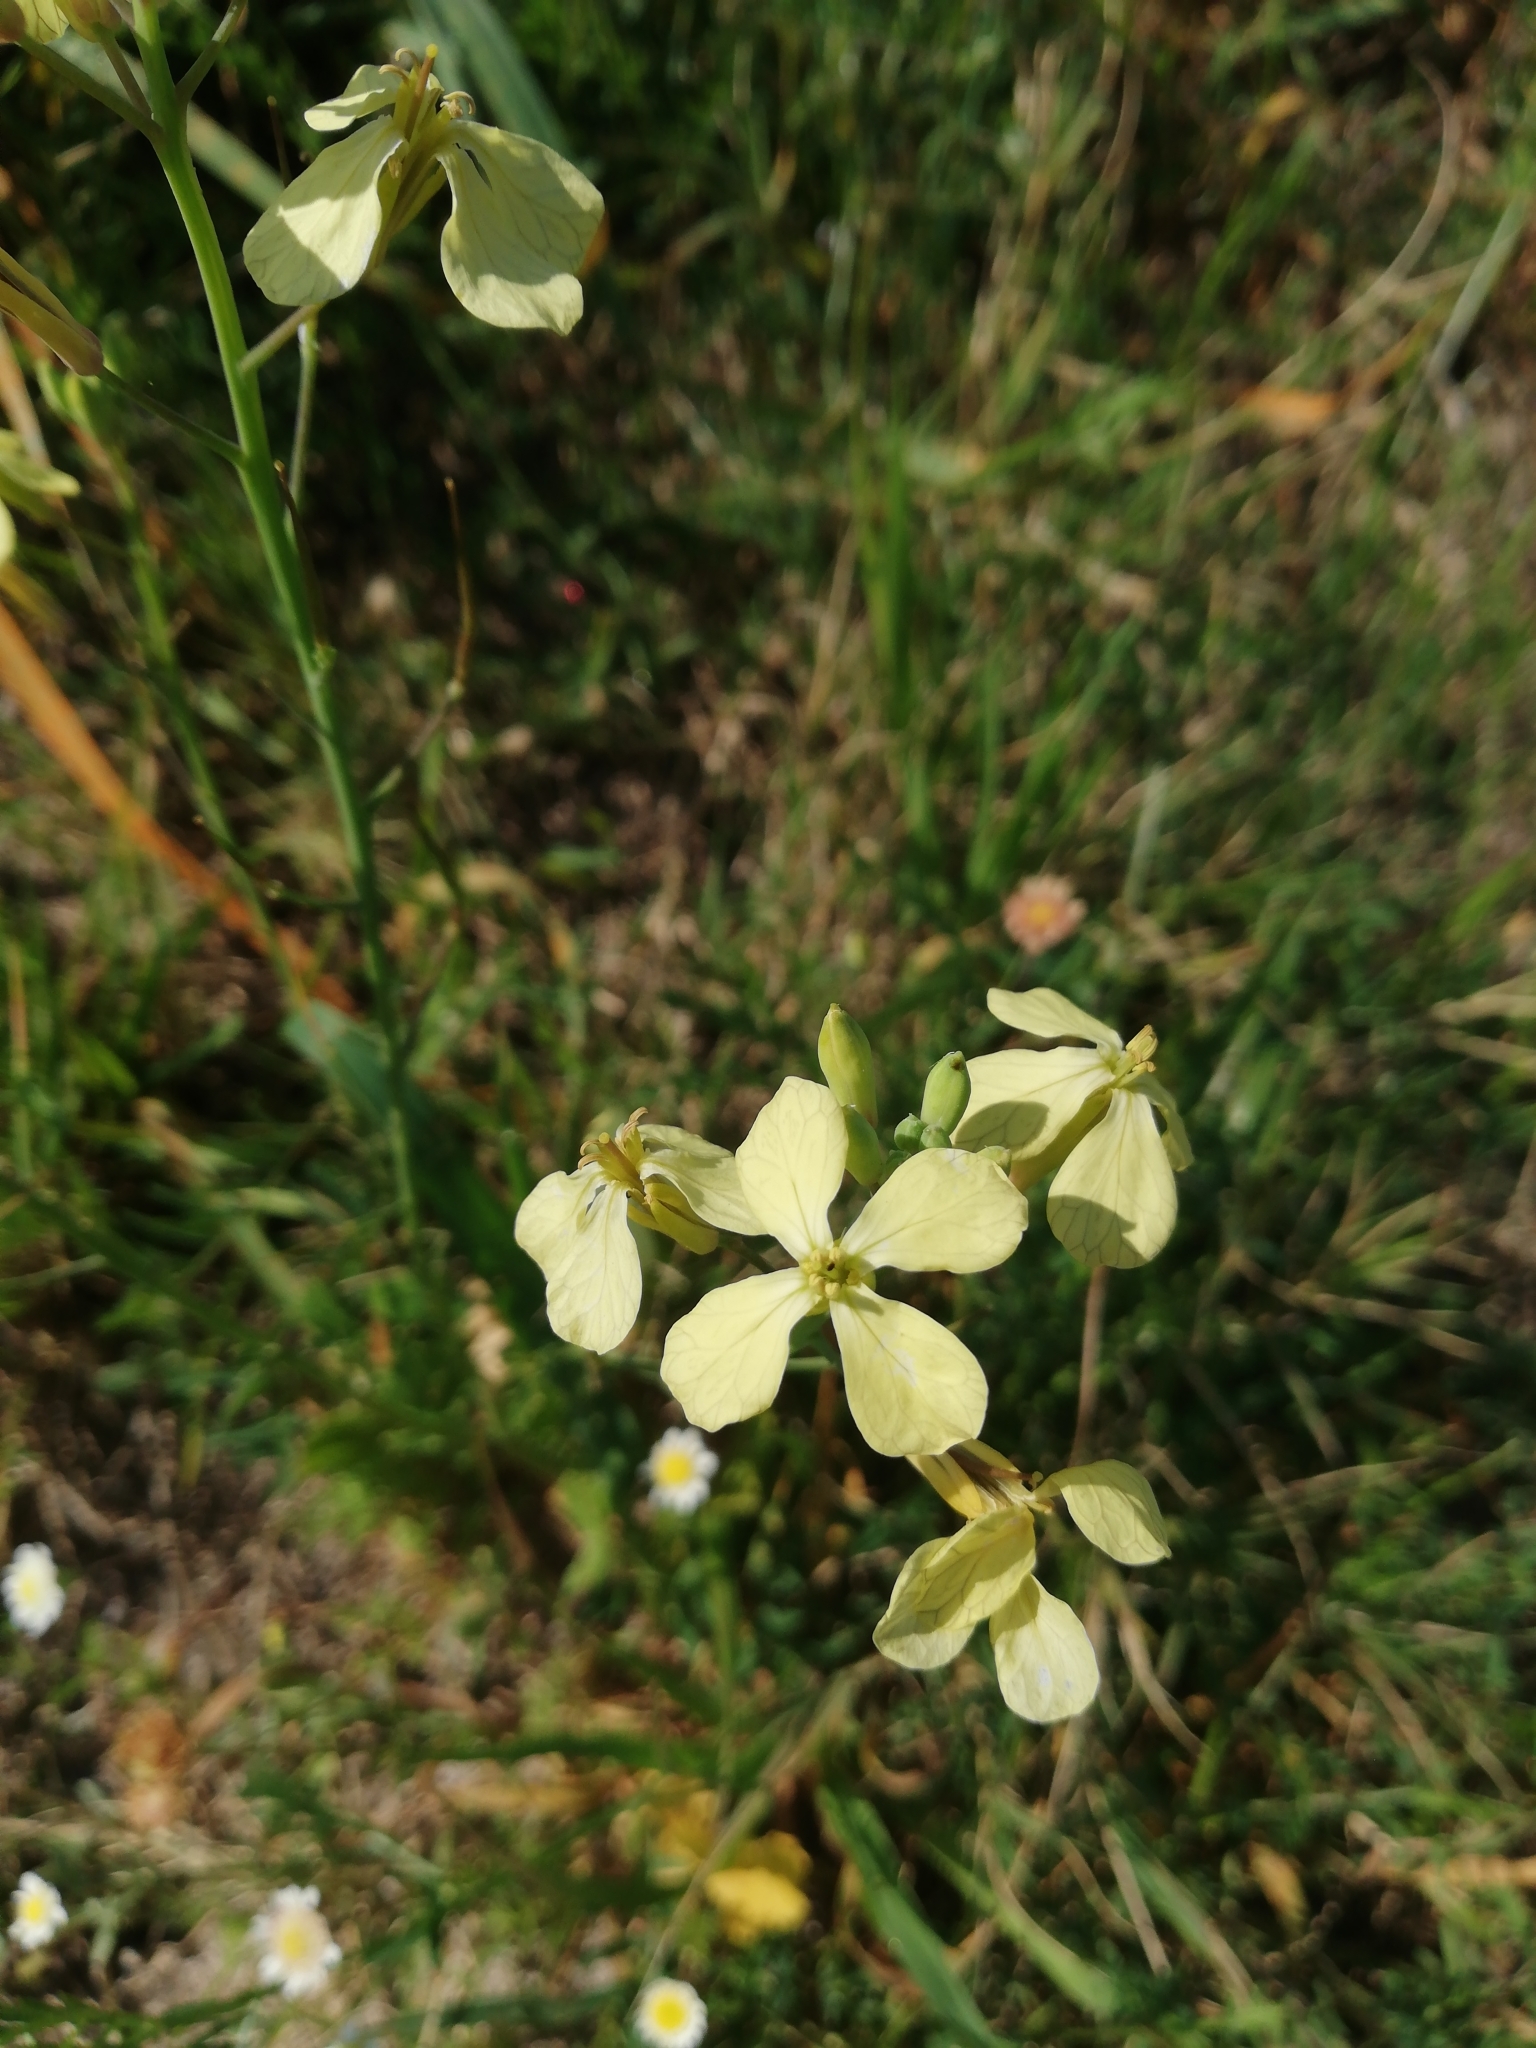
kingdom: Plantae
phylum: Tracheophyta
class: Magnoliopsida
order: Brassicales
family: Brassicaceae
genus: Raphanus
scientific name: Raphanus raphanistrum
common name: Wild radish
